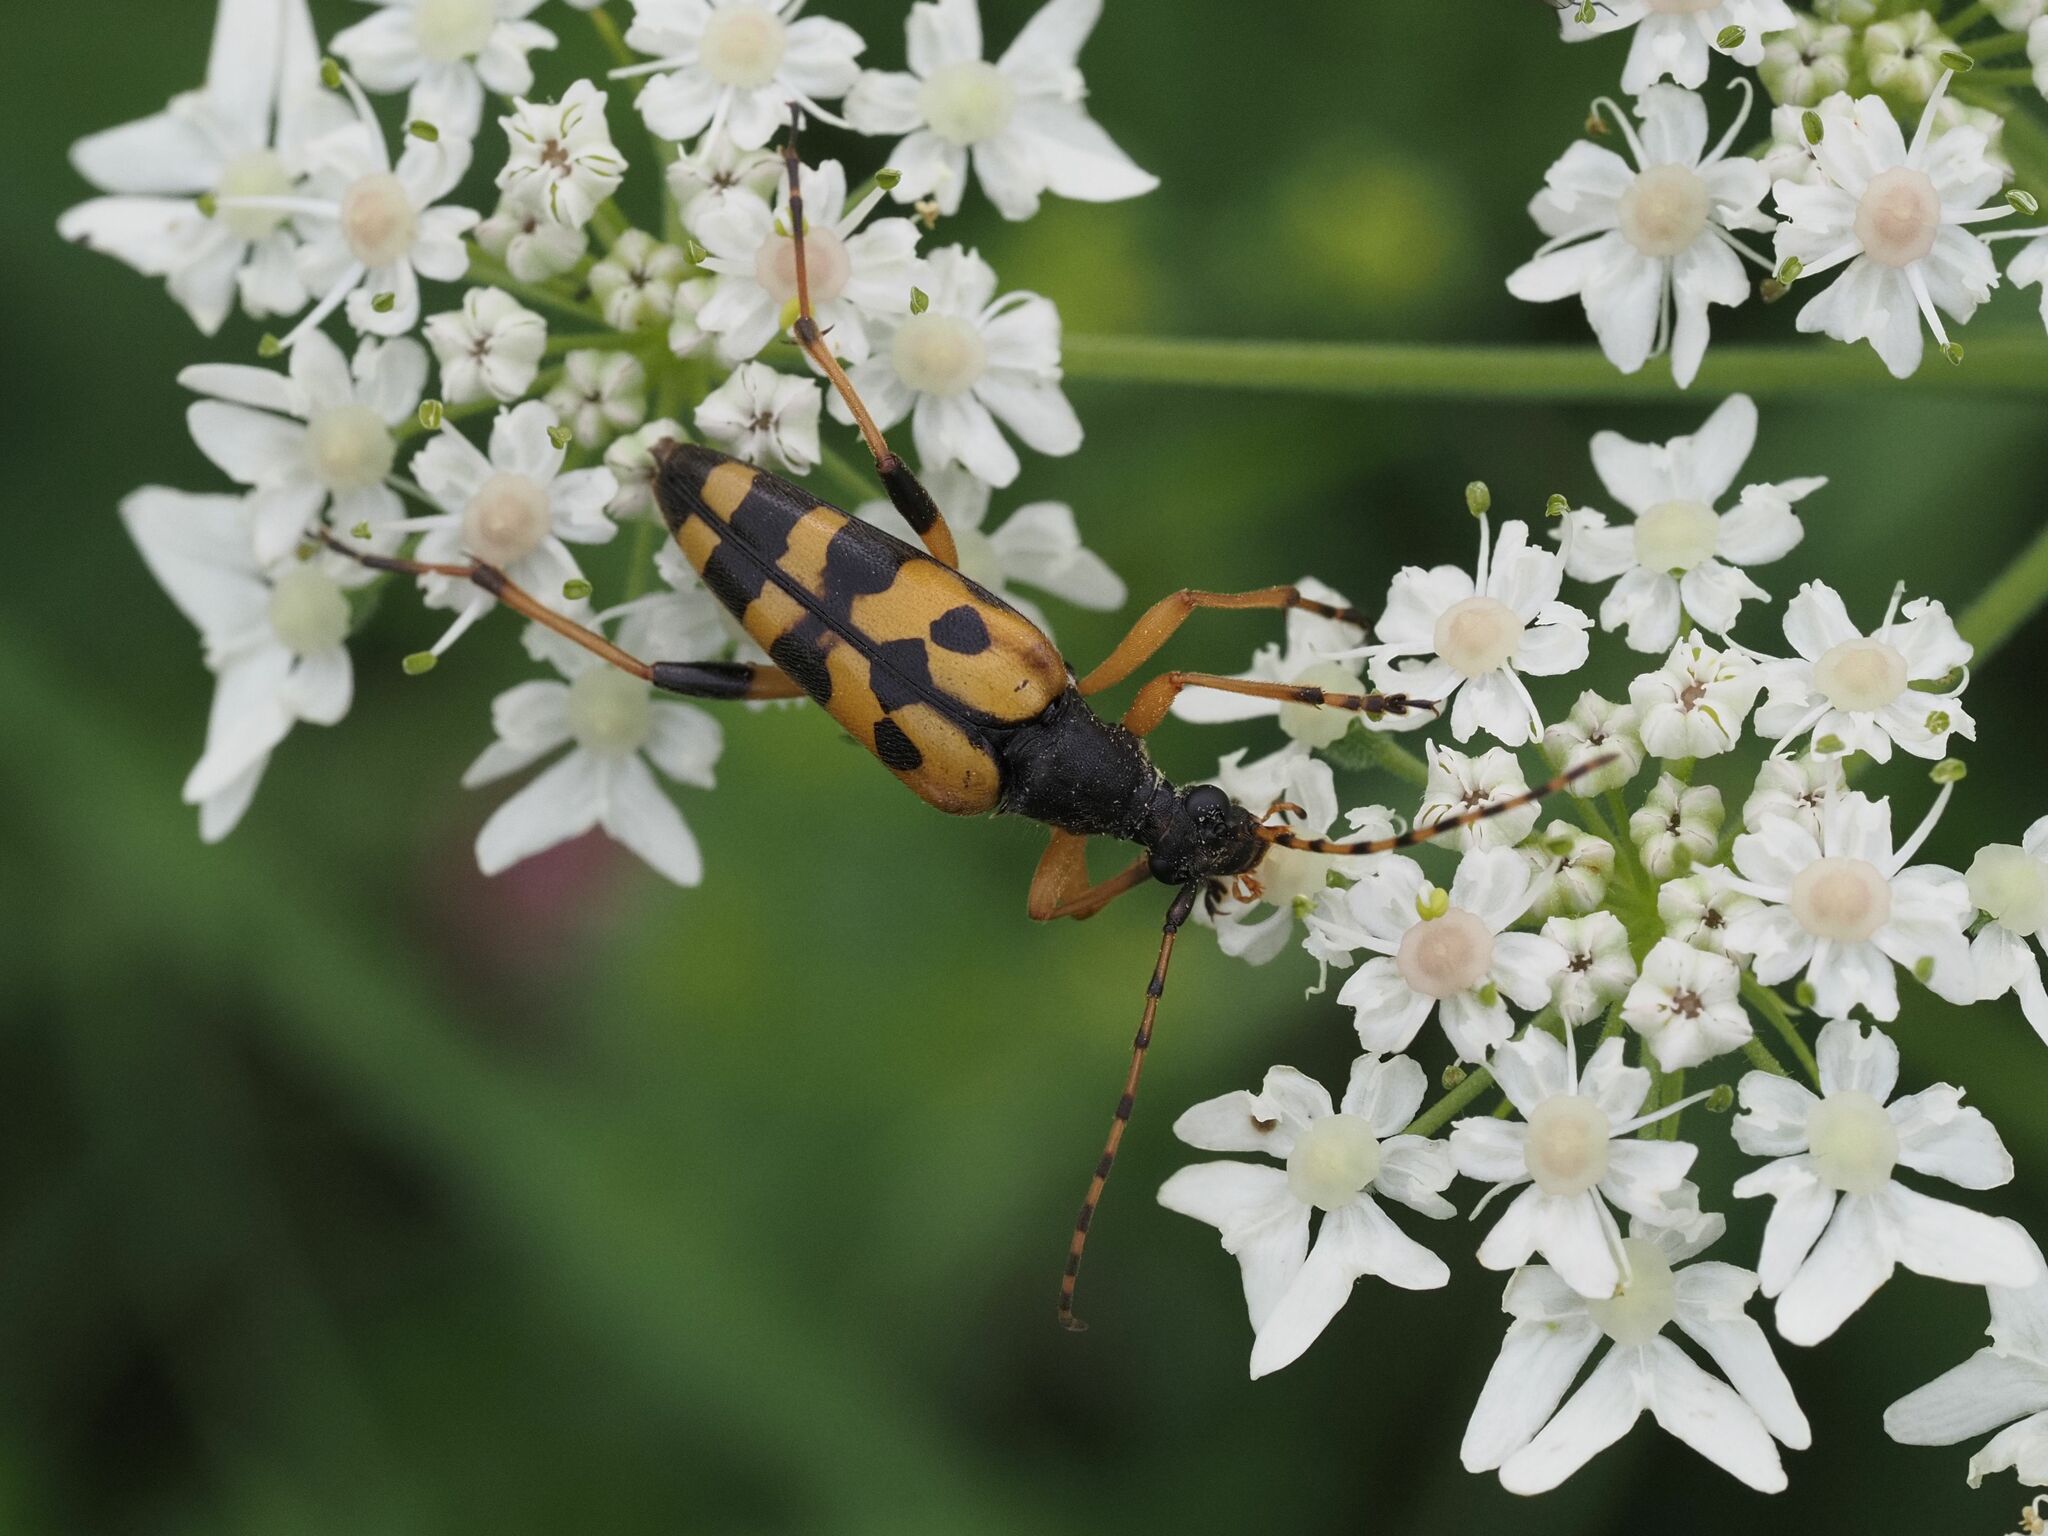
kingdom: Animalia
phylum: Arthropoda
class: Insecta
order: Coleoptera
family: Cerambycidae
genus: Rutpela
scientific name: Rutpela maculata
